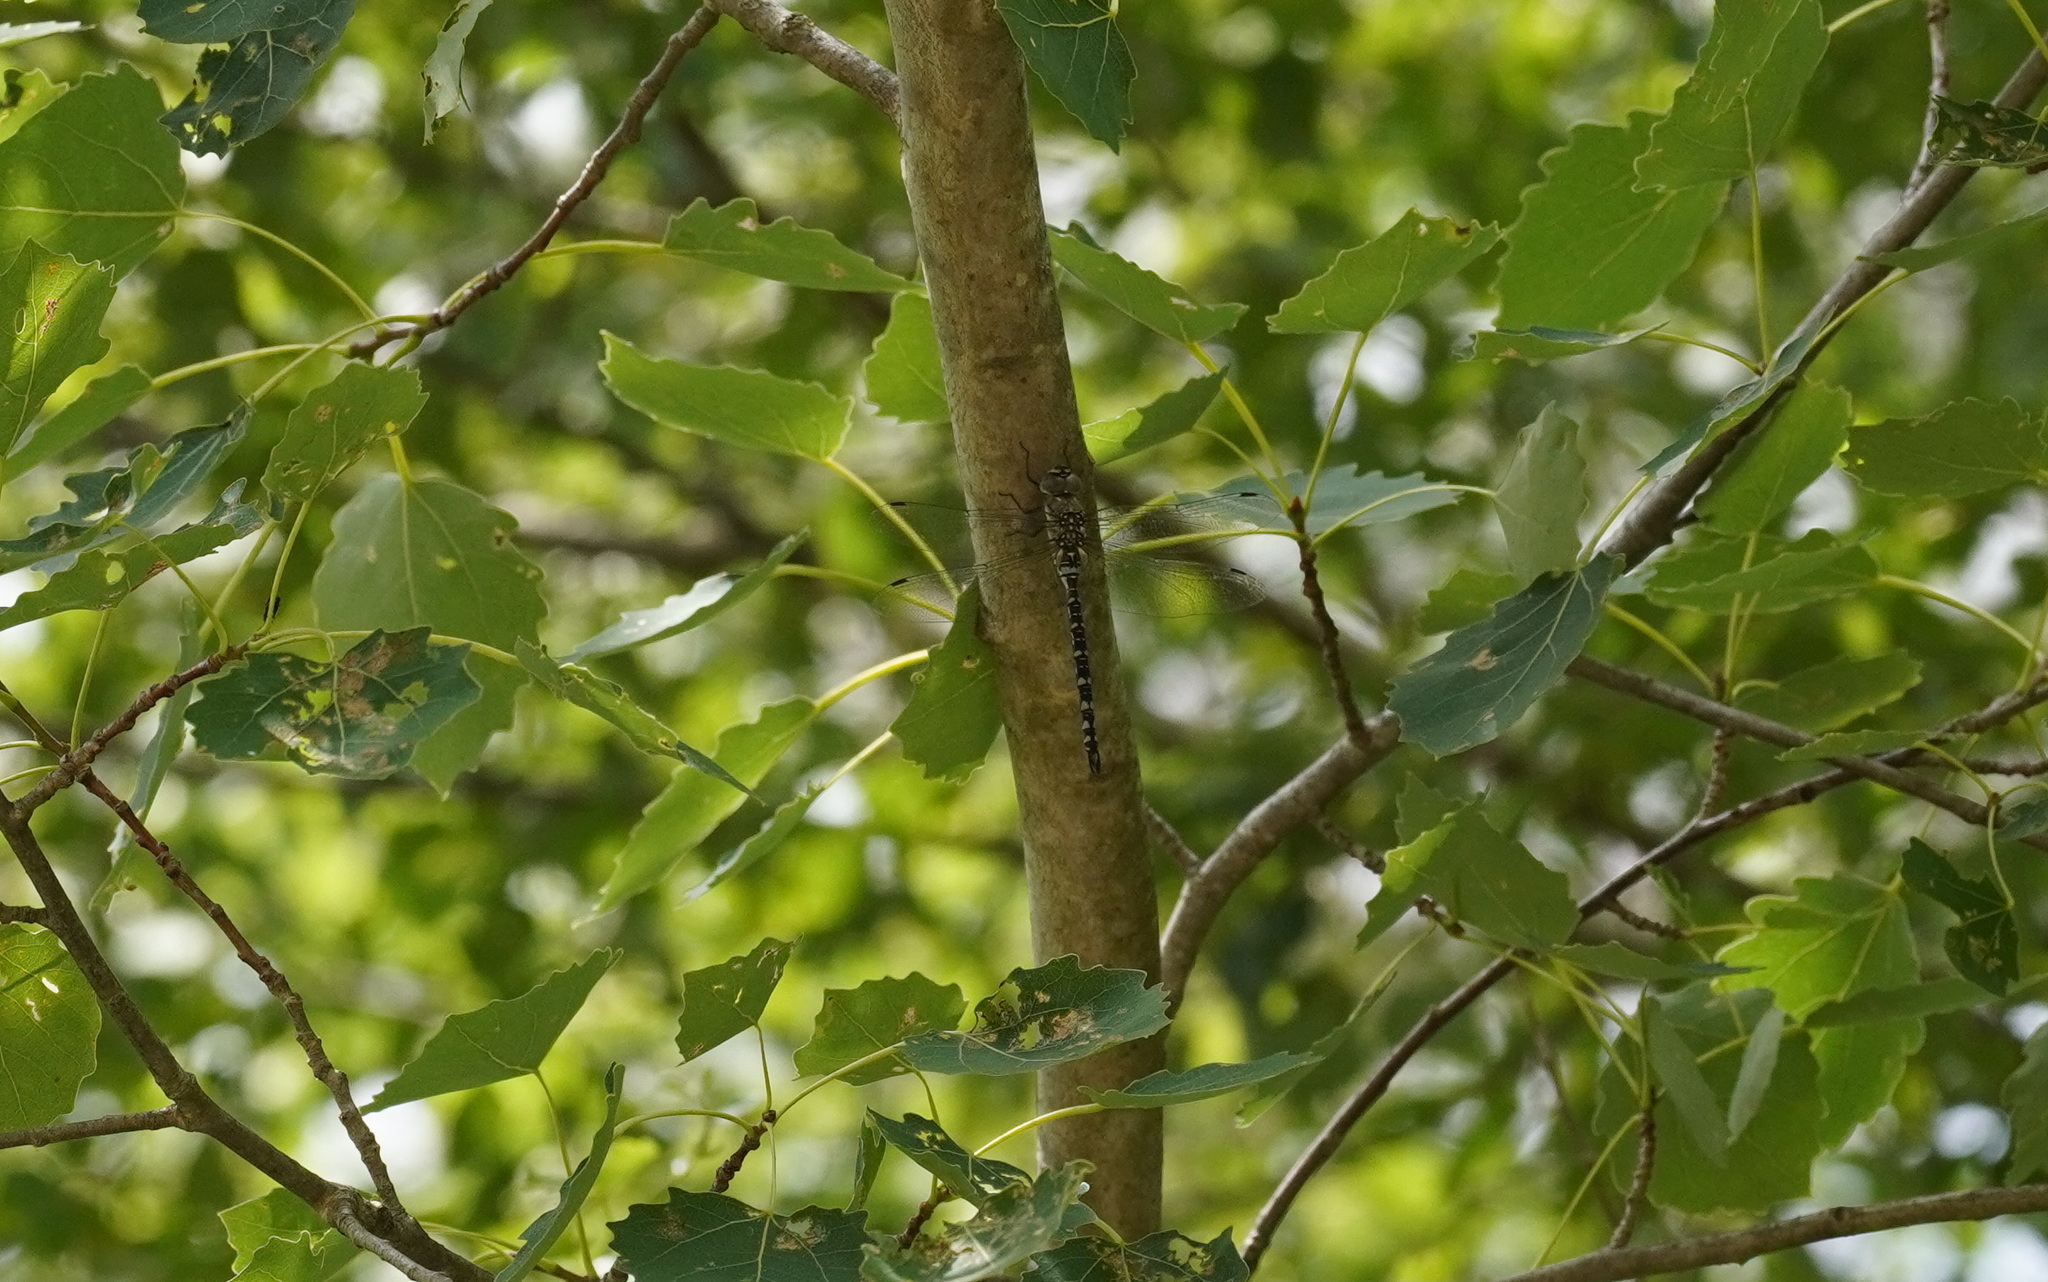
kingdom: Animalia
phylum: Arthropoda
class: Insecta
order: Odonata
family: Aeshnidae
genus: Aeshna
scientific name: Aeshna mixta
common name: Migrant hawker
